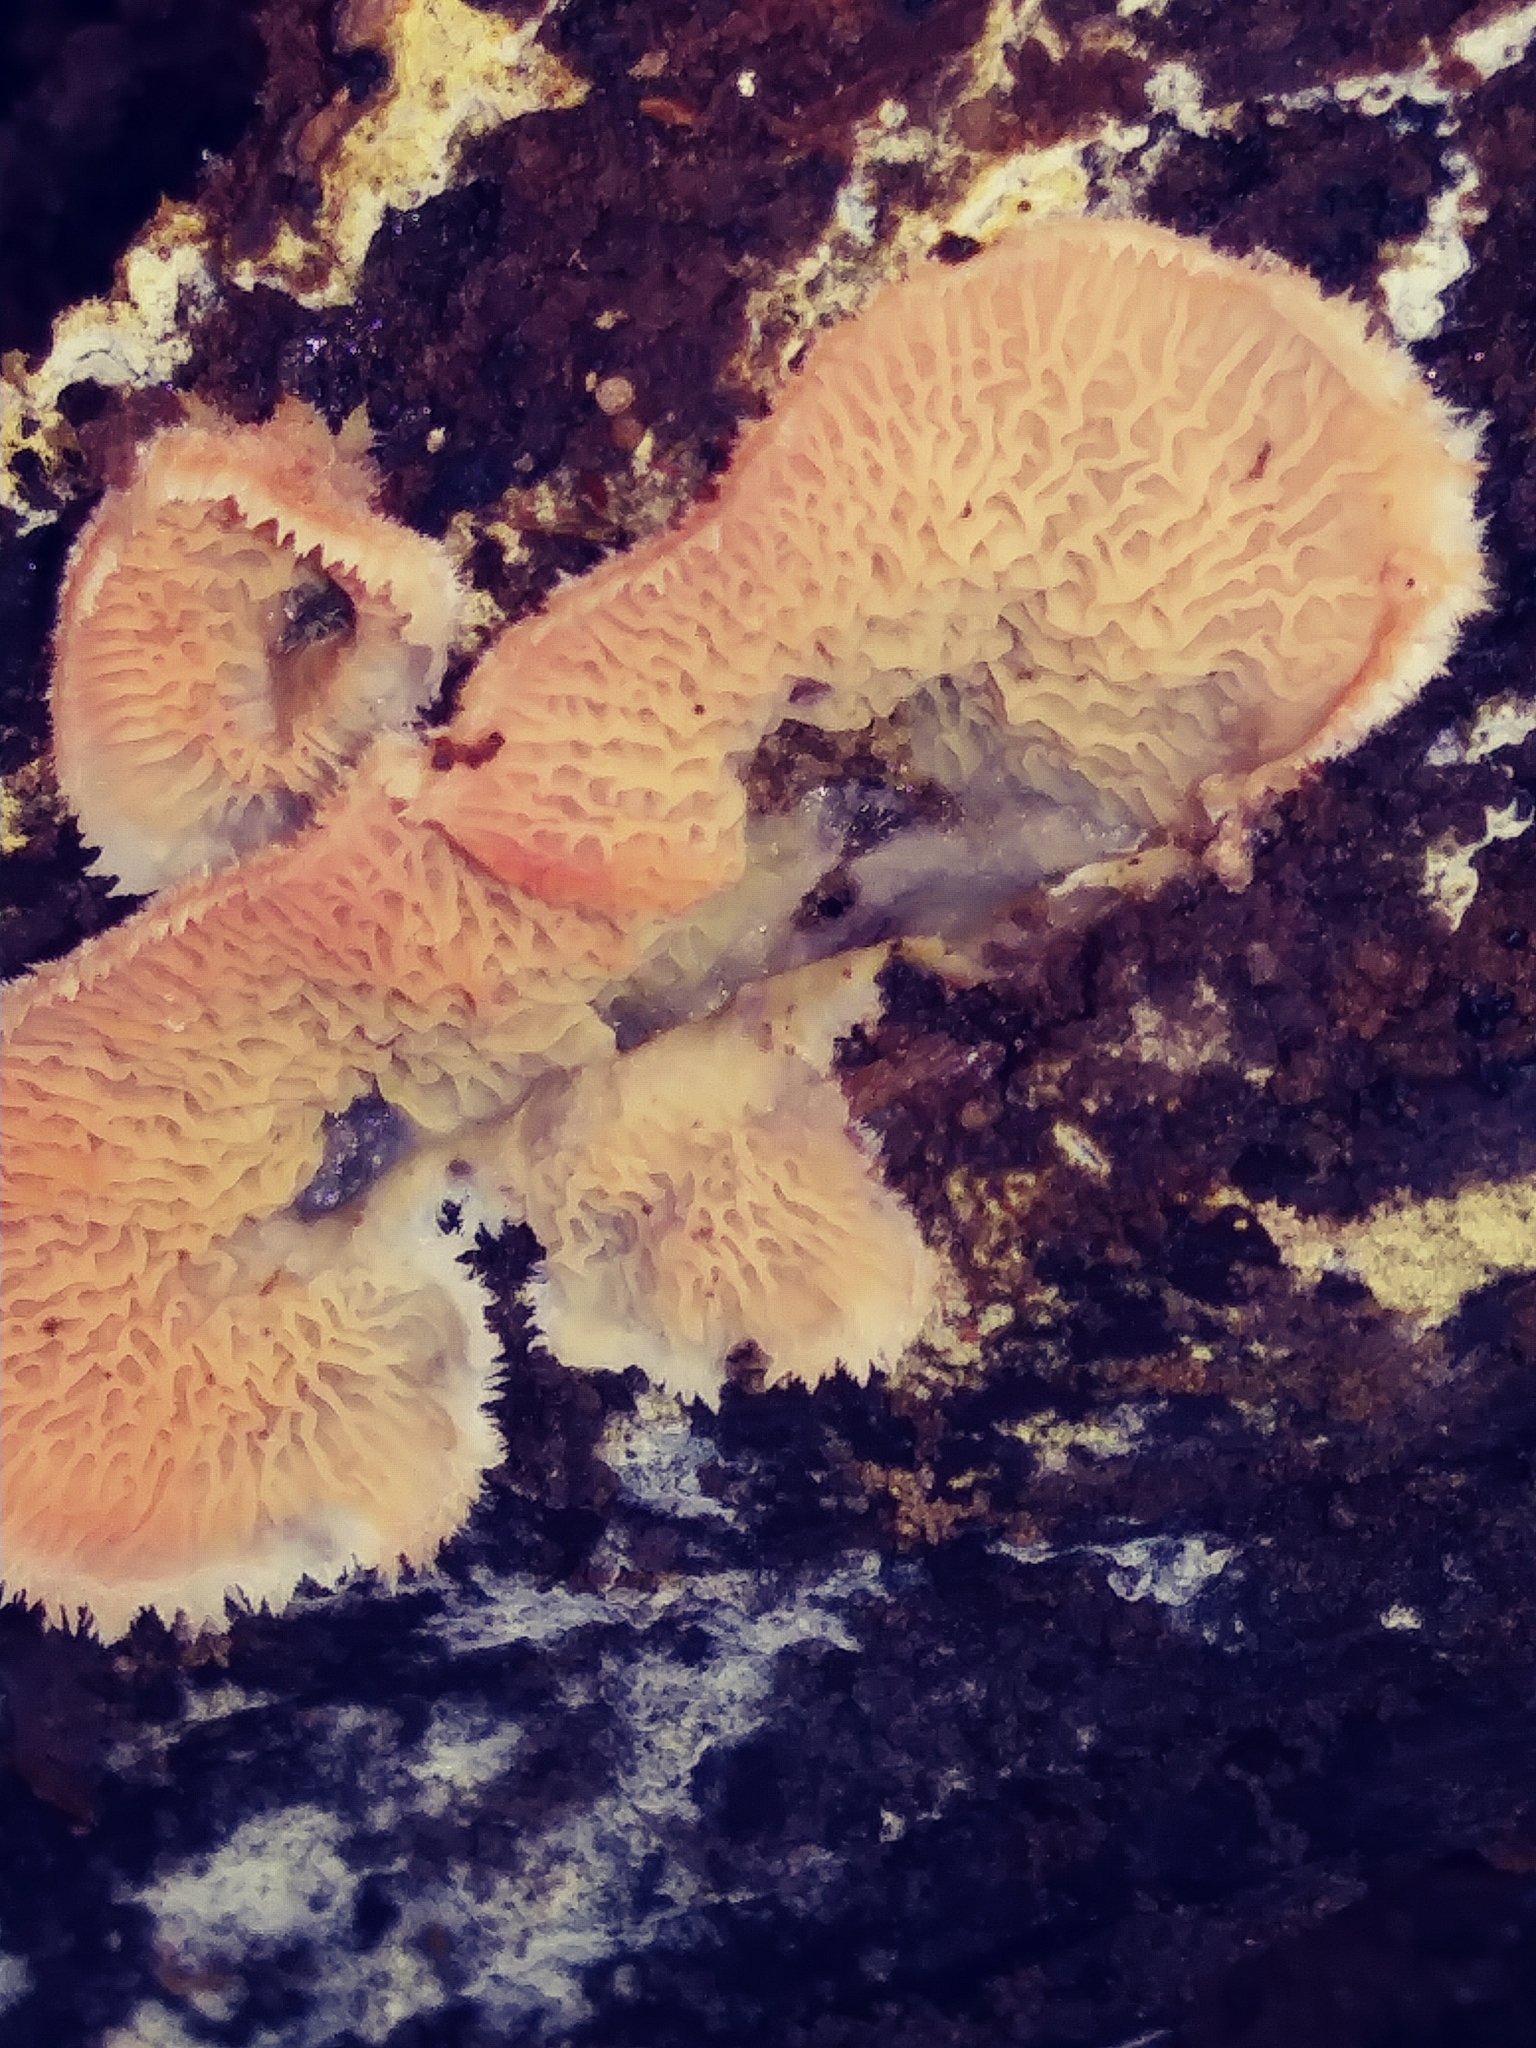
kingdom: Fungi
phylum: Basidiomycota
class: Agaricomycetes
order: Polyporales
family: Meruliaceae
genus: Phlebia
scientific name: Phlebia tremellosa
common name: Jelly rot
